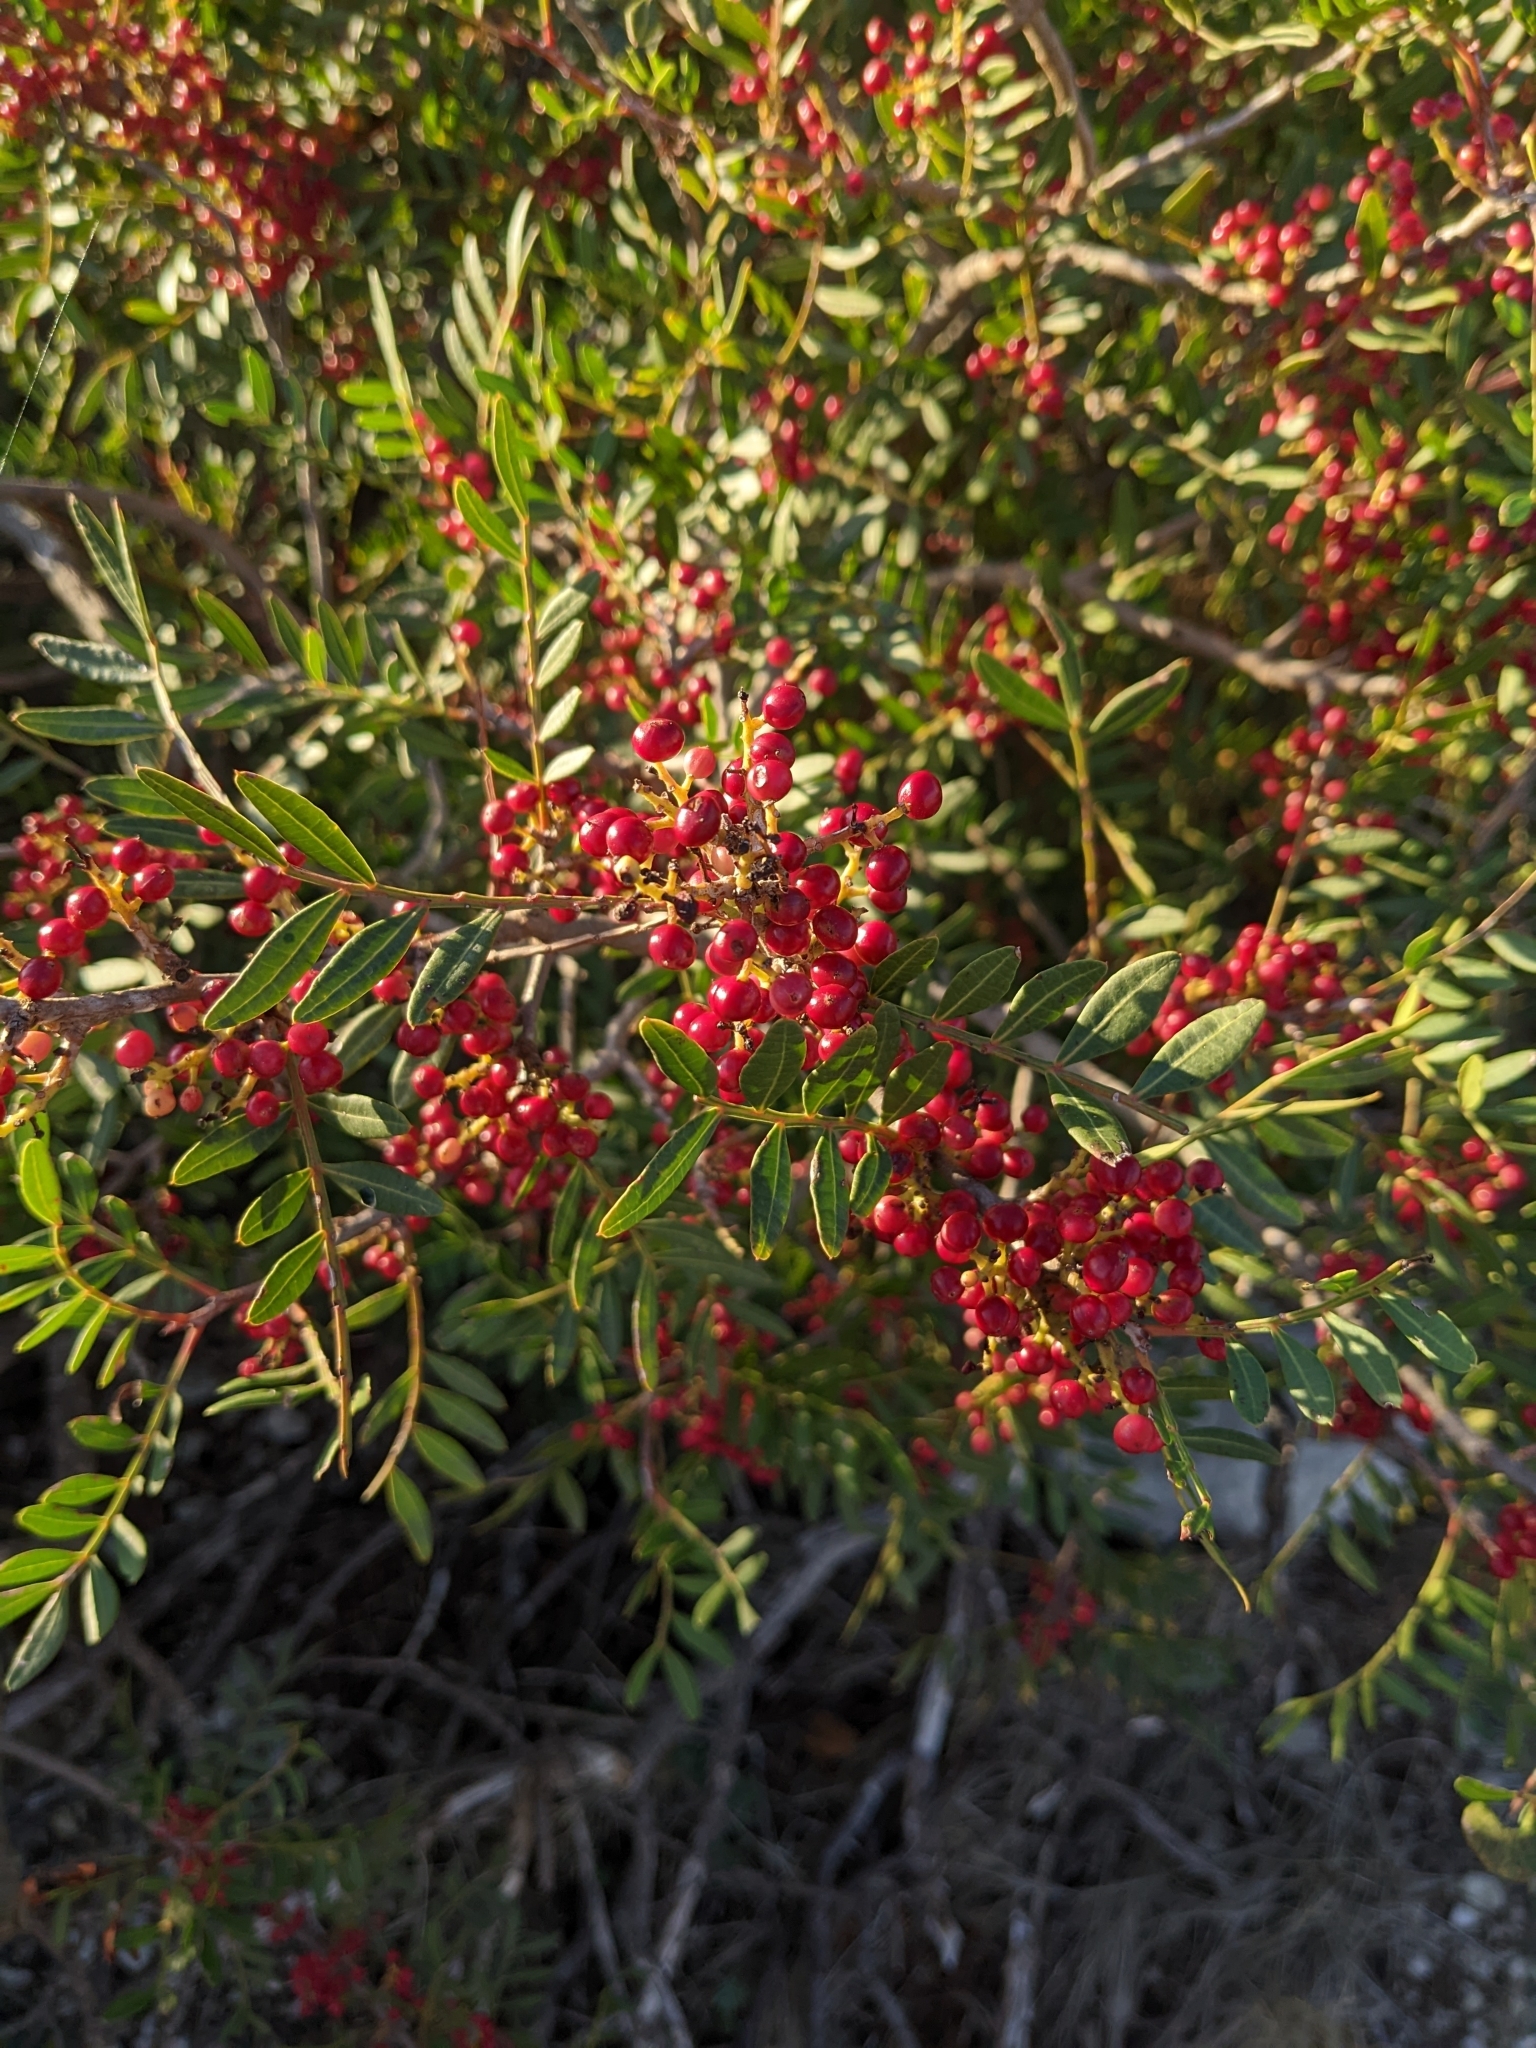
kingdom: Plantae
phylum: Tracheophyta
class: Magnoliopsida
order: Sapindales
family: Anacardiaceae
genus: Pistacia
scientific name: Pistacia lentiscus
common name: Lentisk
